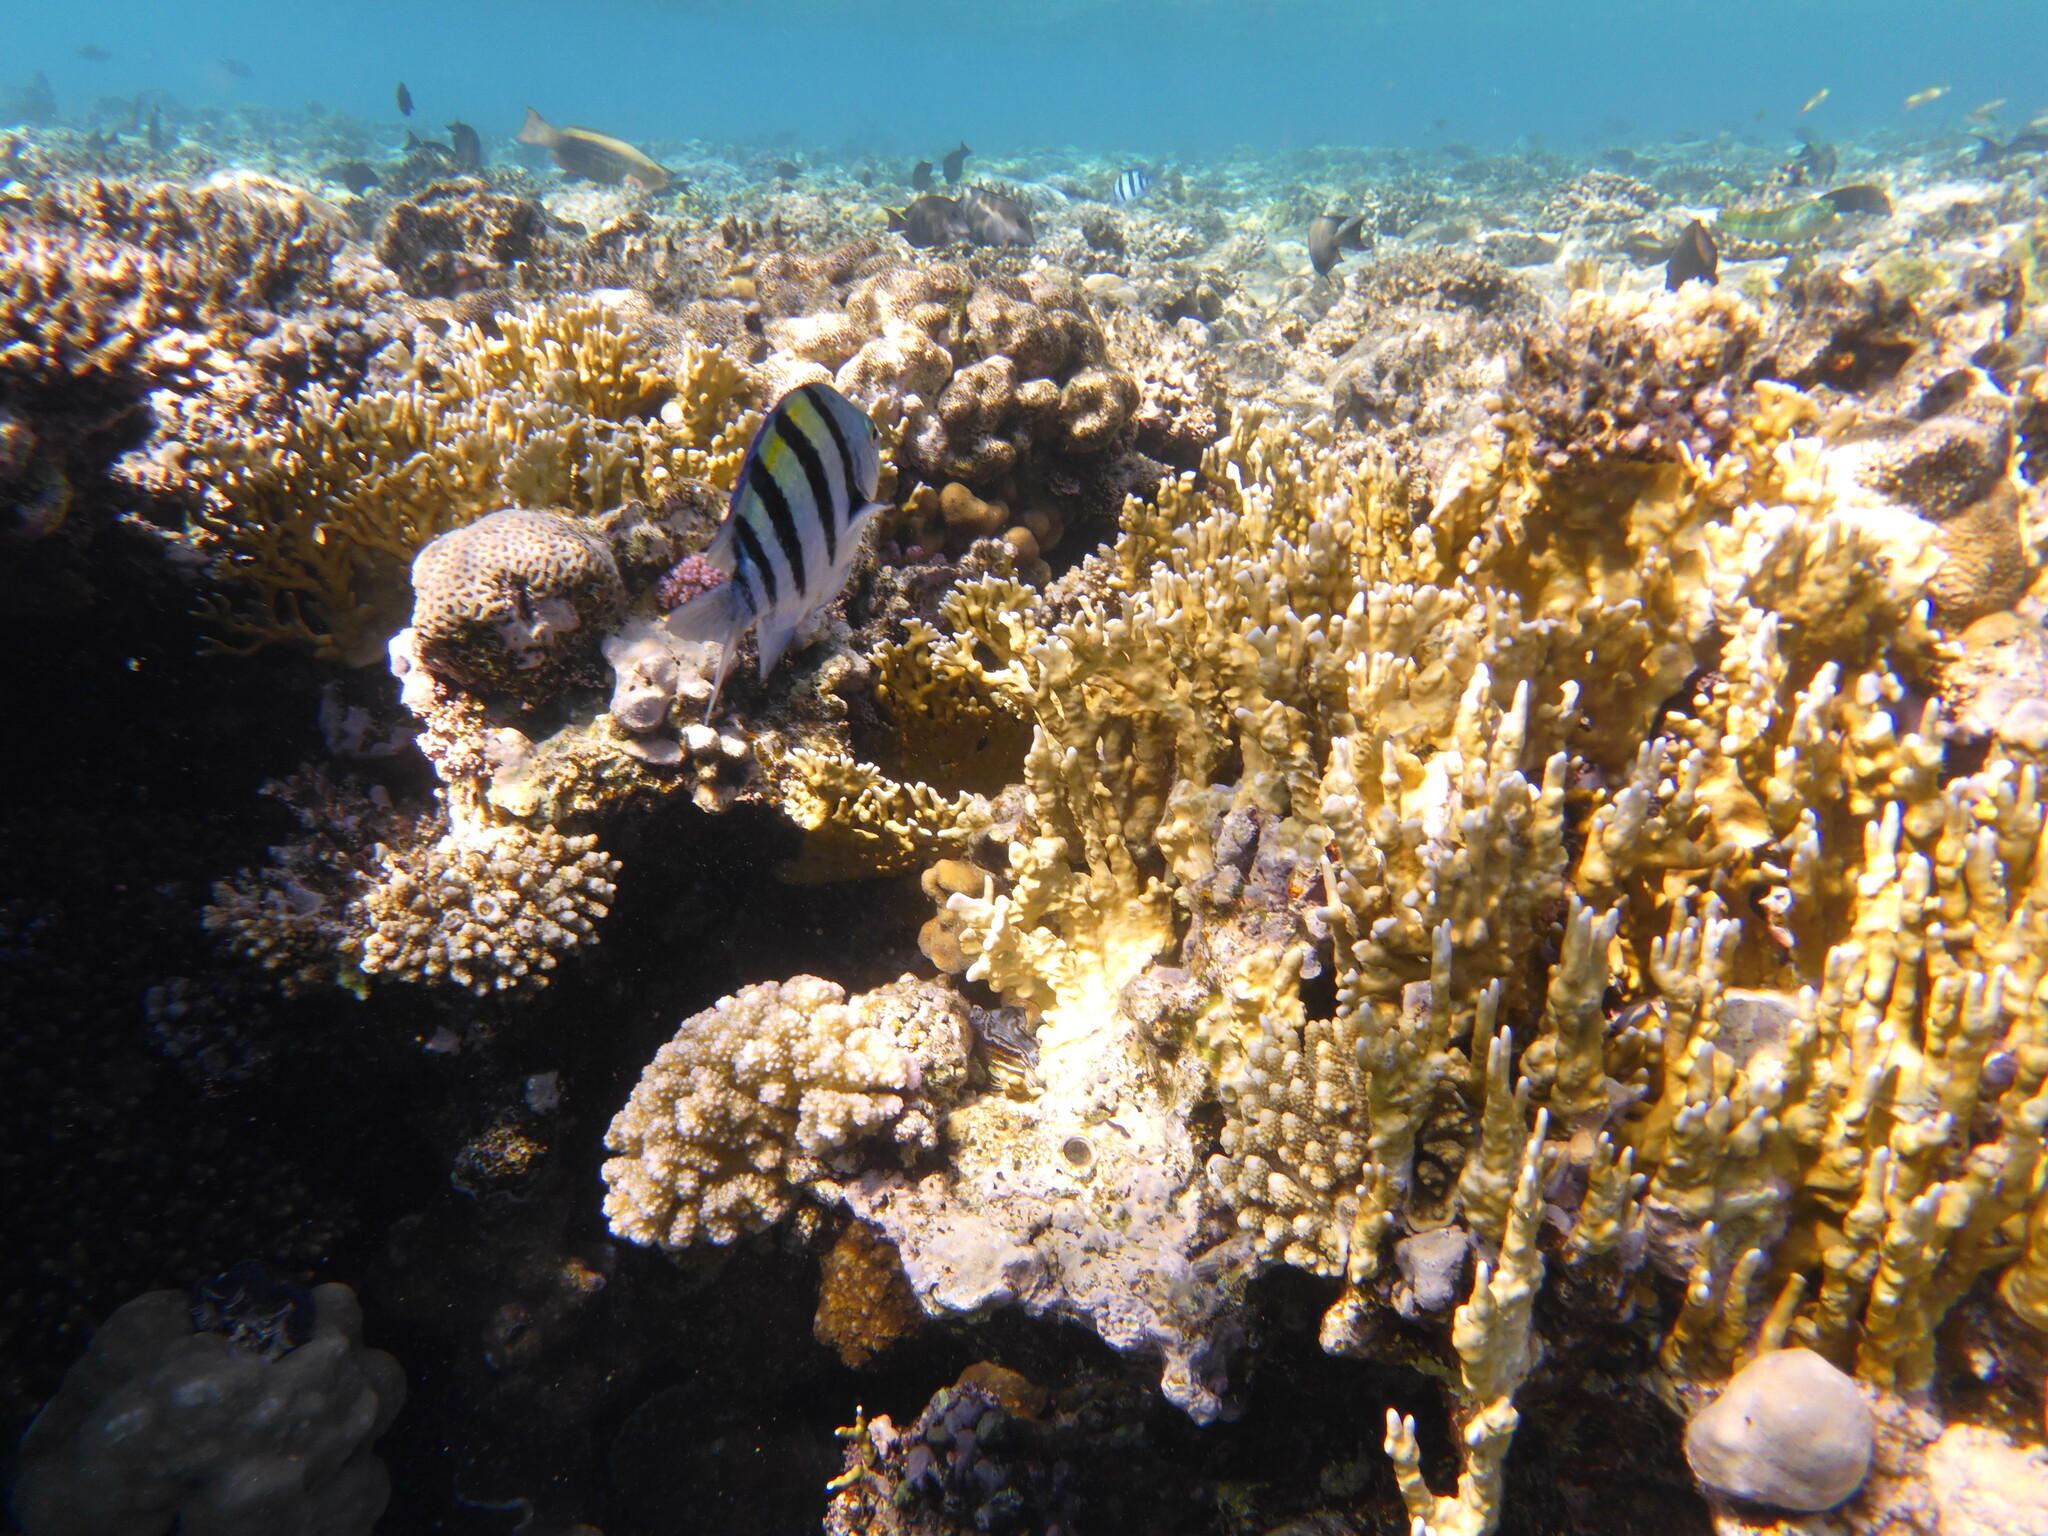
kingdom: Animalia
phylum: Chordata
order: Perciformes
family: Pomacentridae
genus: Abudefduf
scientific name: Abudefduf vaigiensis
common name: Indo-pacific sergeant
